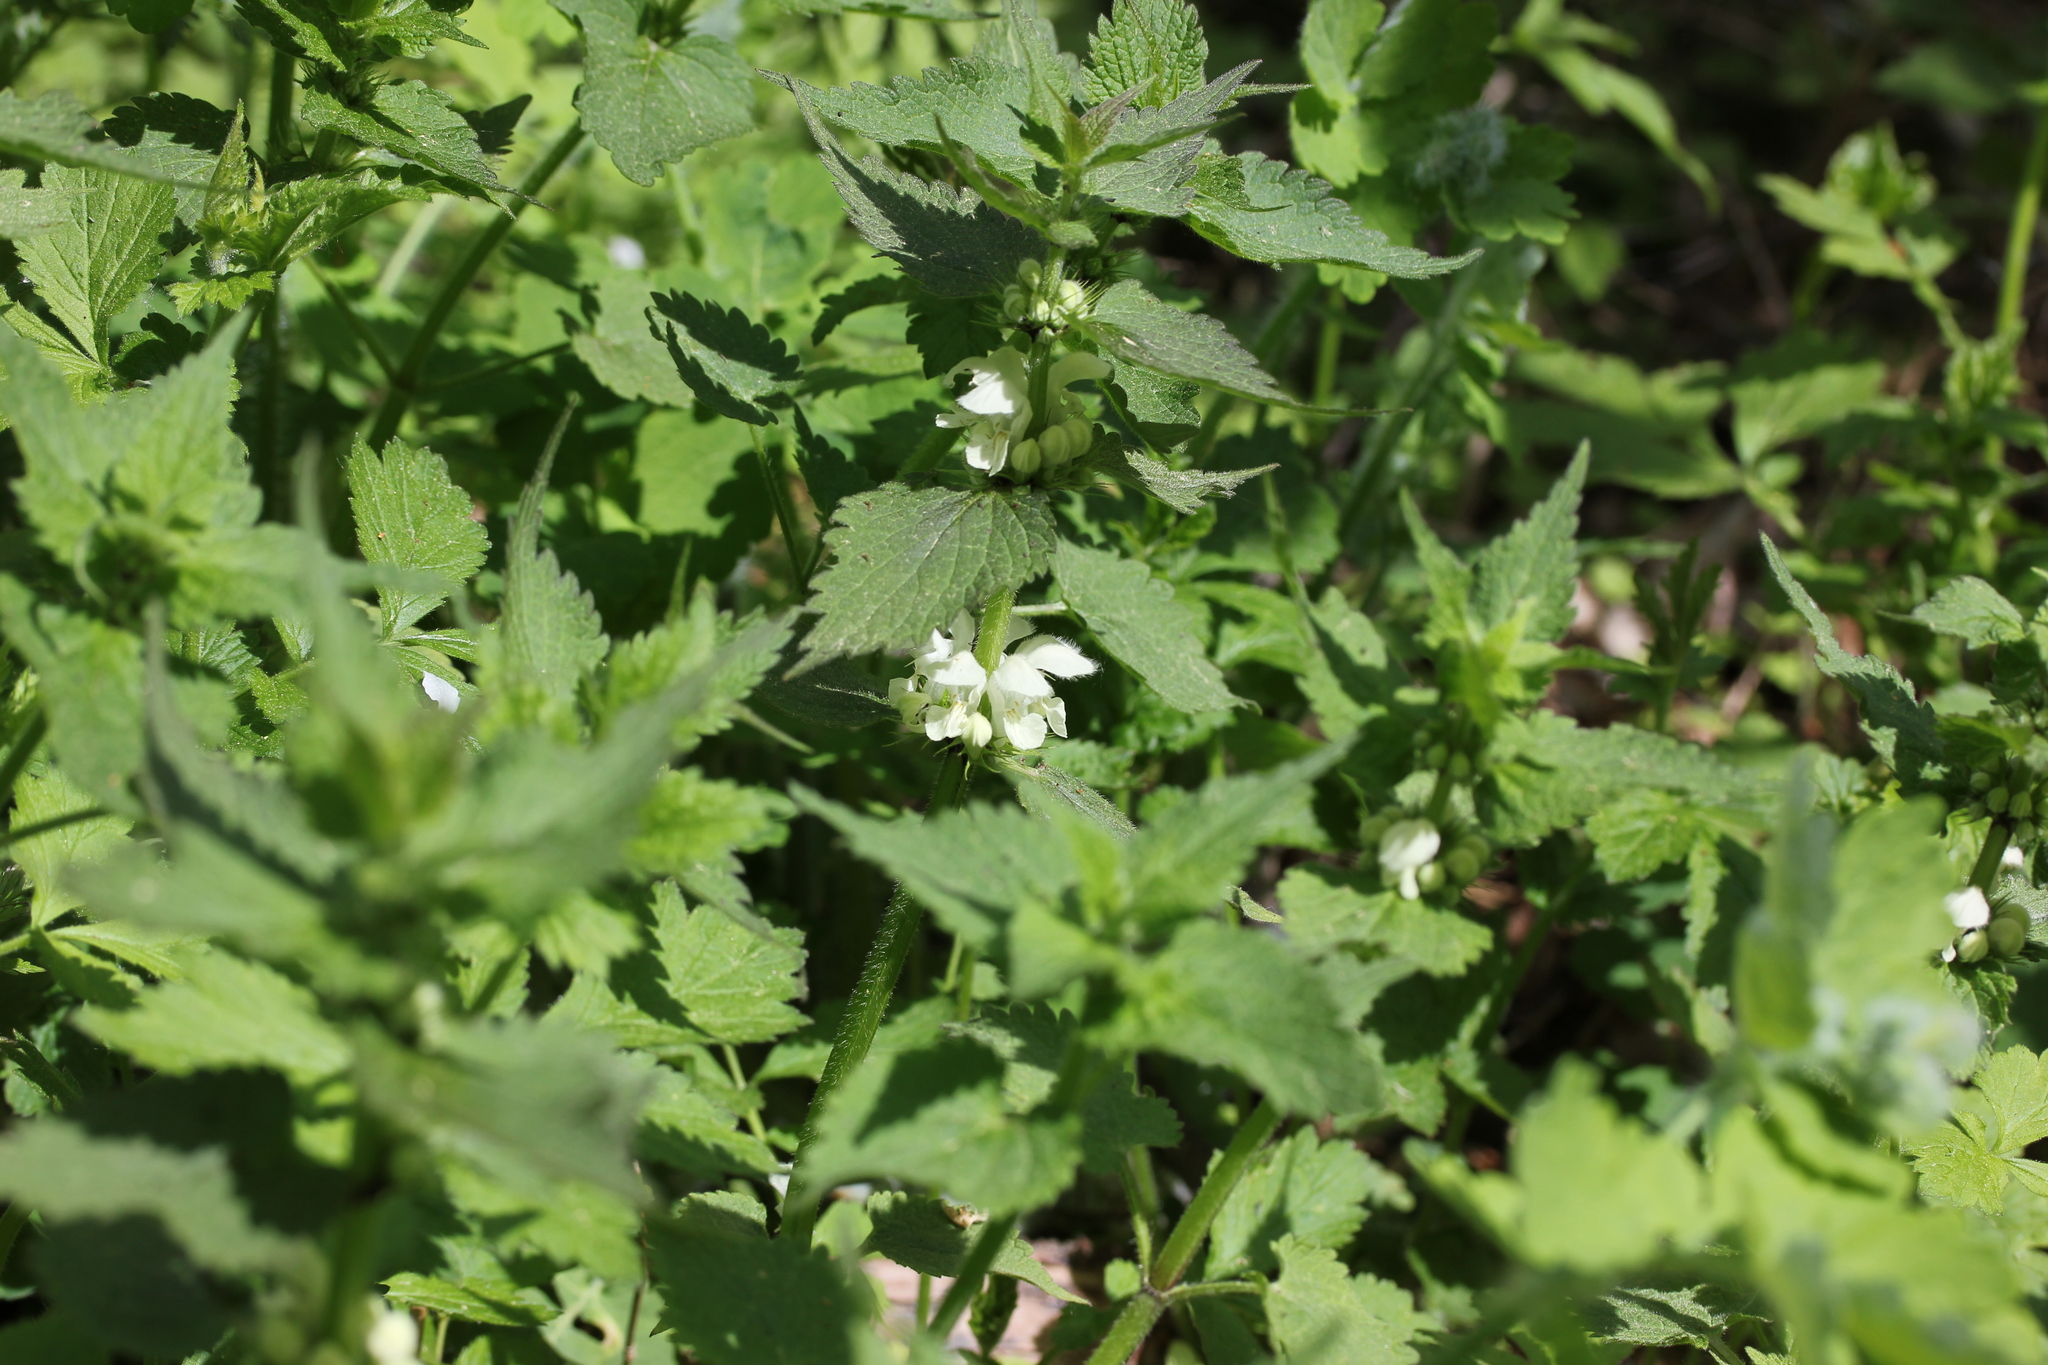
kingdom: Plantae
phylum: Tracheophyta
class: Magnoliopsida
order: Lamiales
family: Lamiaceae
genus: Lamium
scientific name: Lamium album
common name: White dead-nettle
